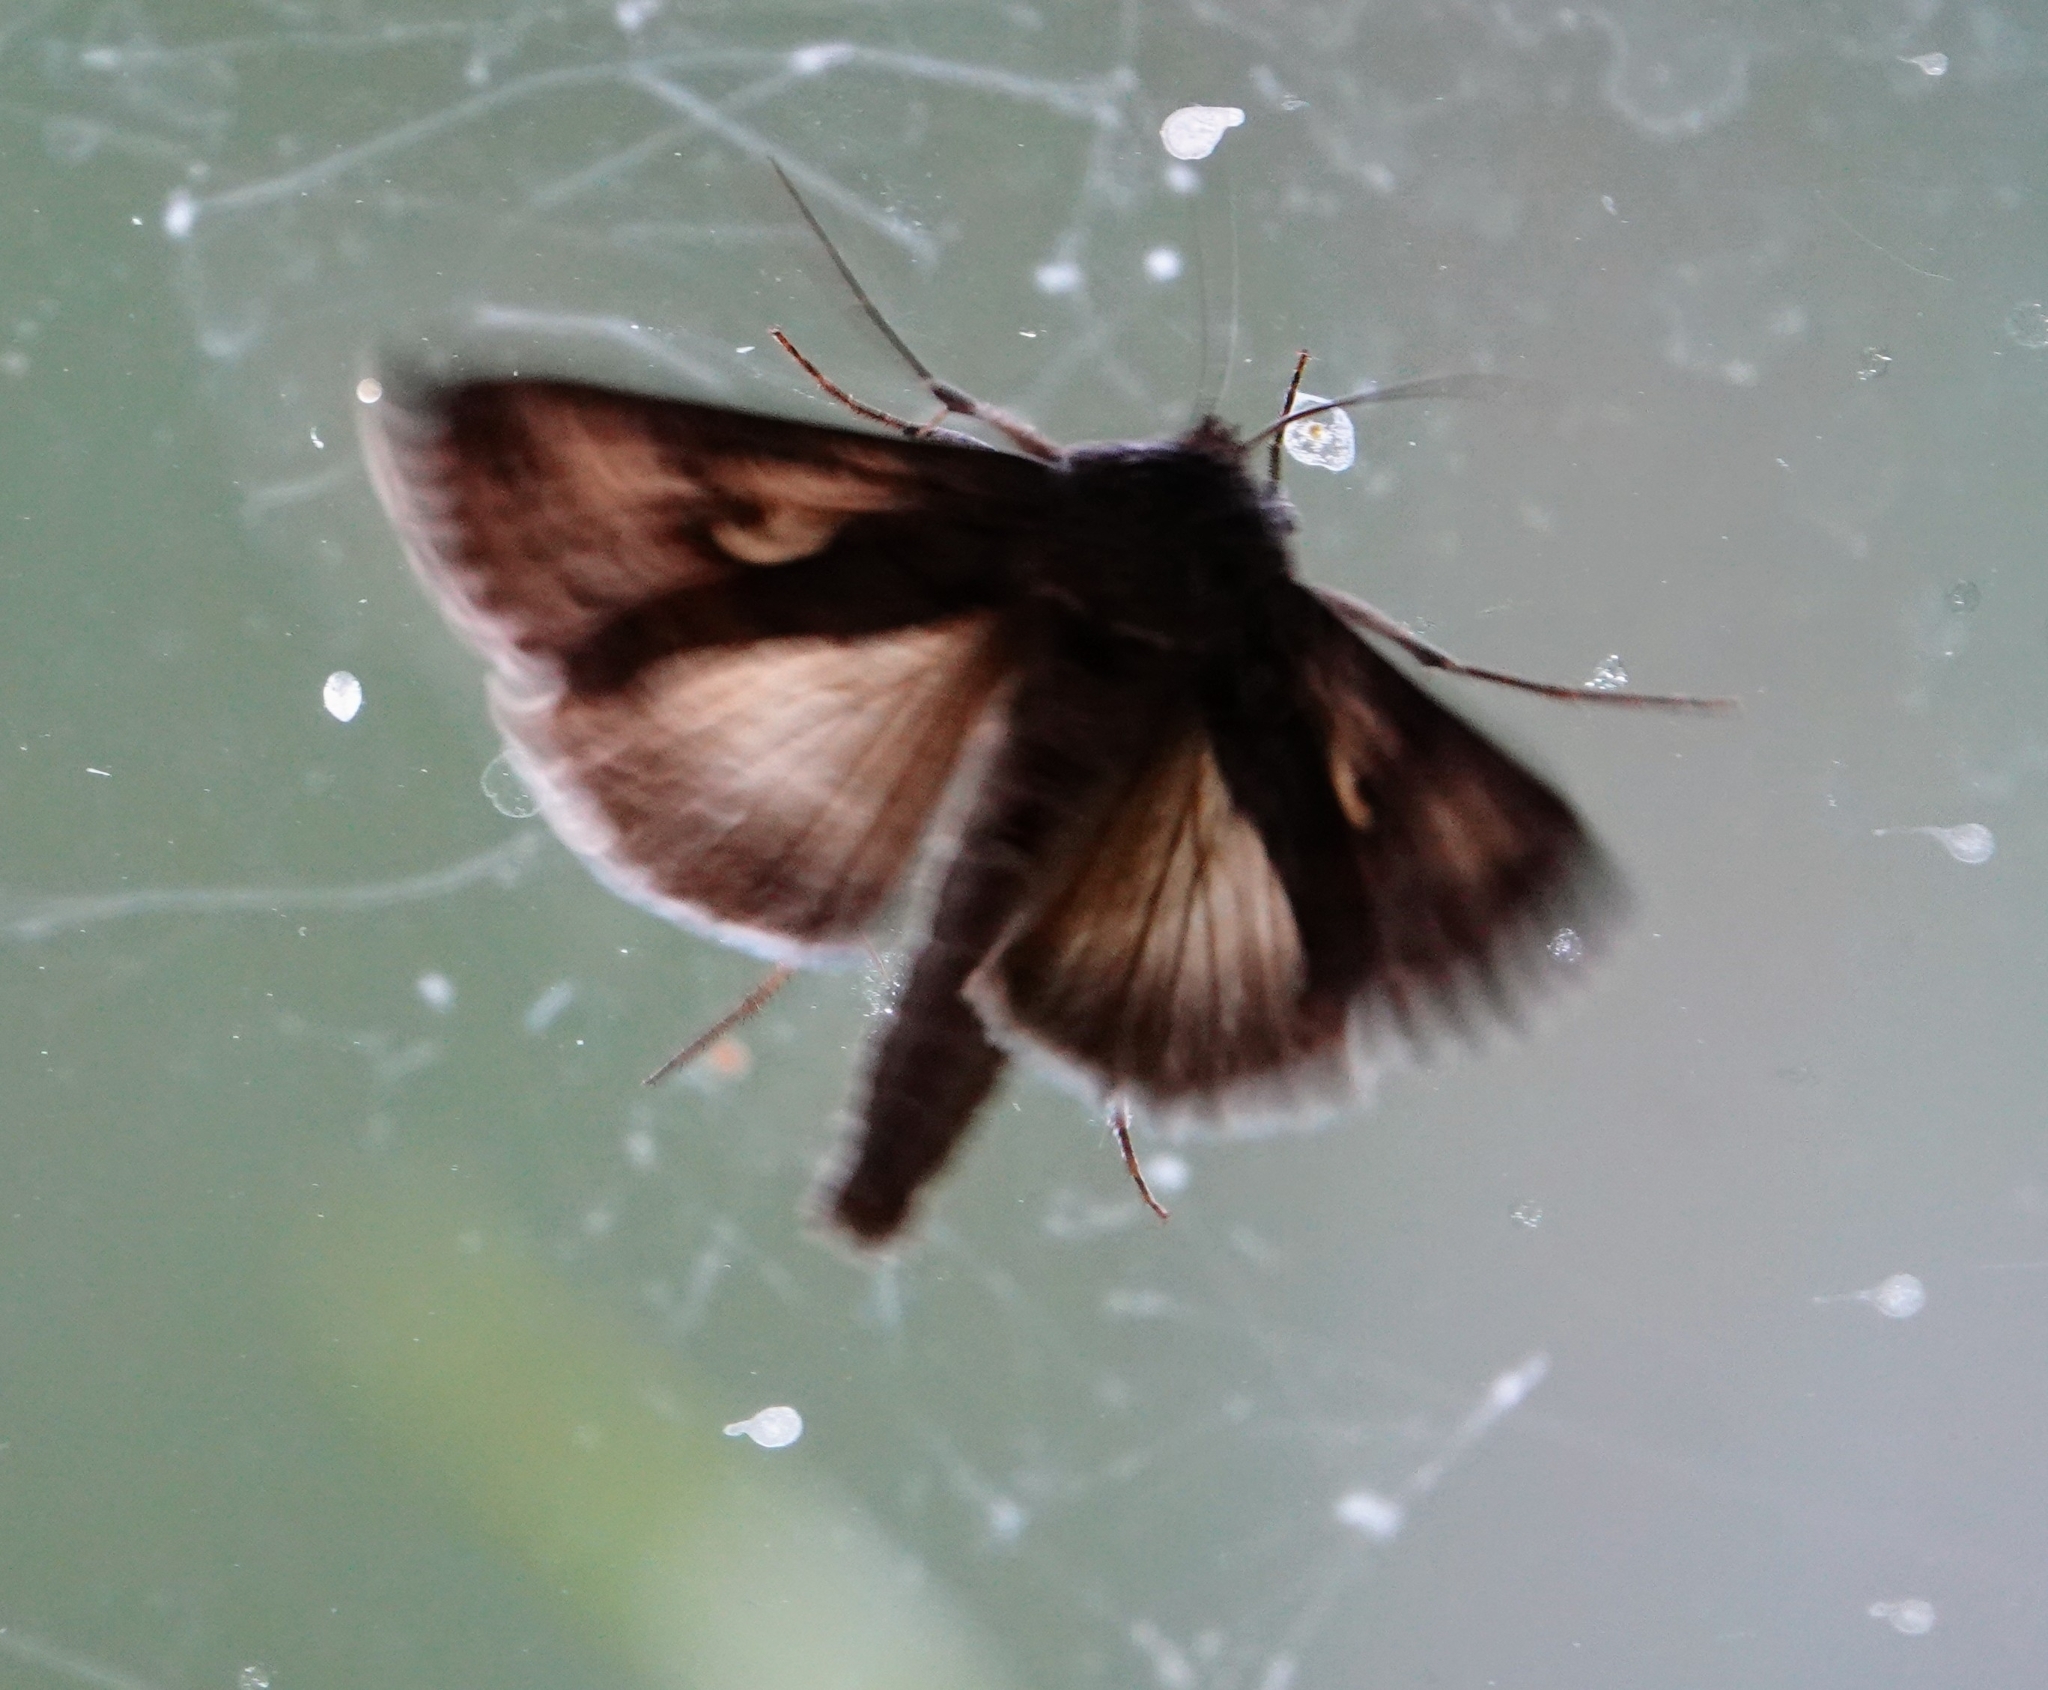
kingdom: Animalia
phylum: Arthropoda
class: Insecta
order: Lepidoptera
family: Noctuidae
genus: Autographa
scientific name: Autographa gamma
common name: Silver y
